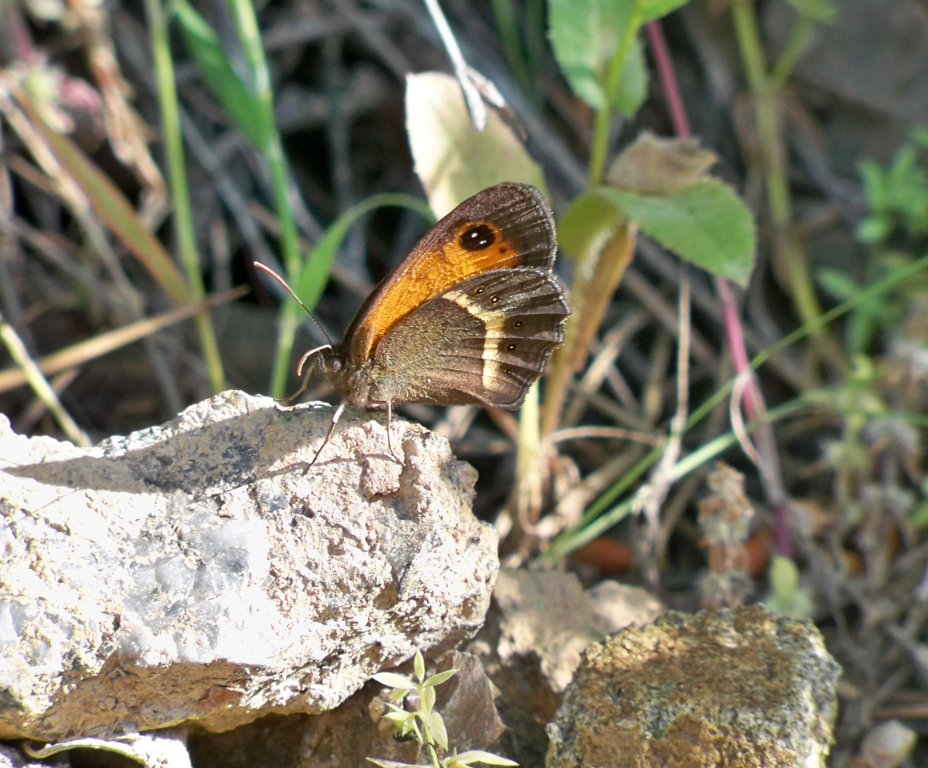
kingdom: Animalia
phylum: Arthropoda
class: Insecta
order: Lepidoptera
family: Nymphalidae
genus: Pyronia
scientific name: Pyronia bathseba
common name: Spanish gatekeeper
